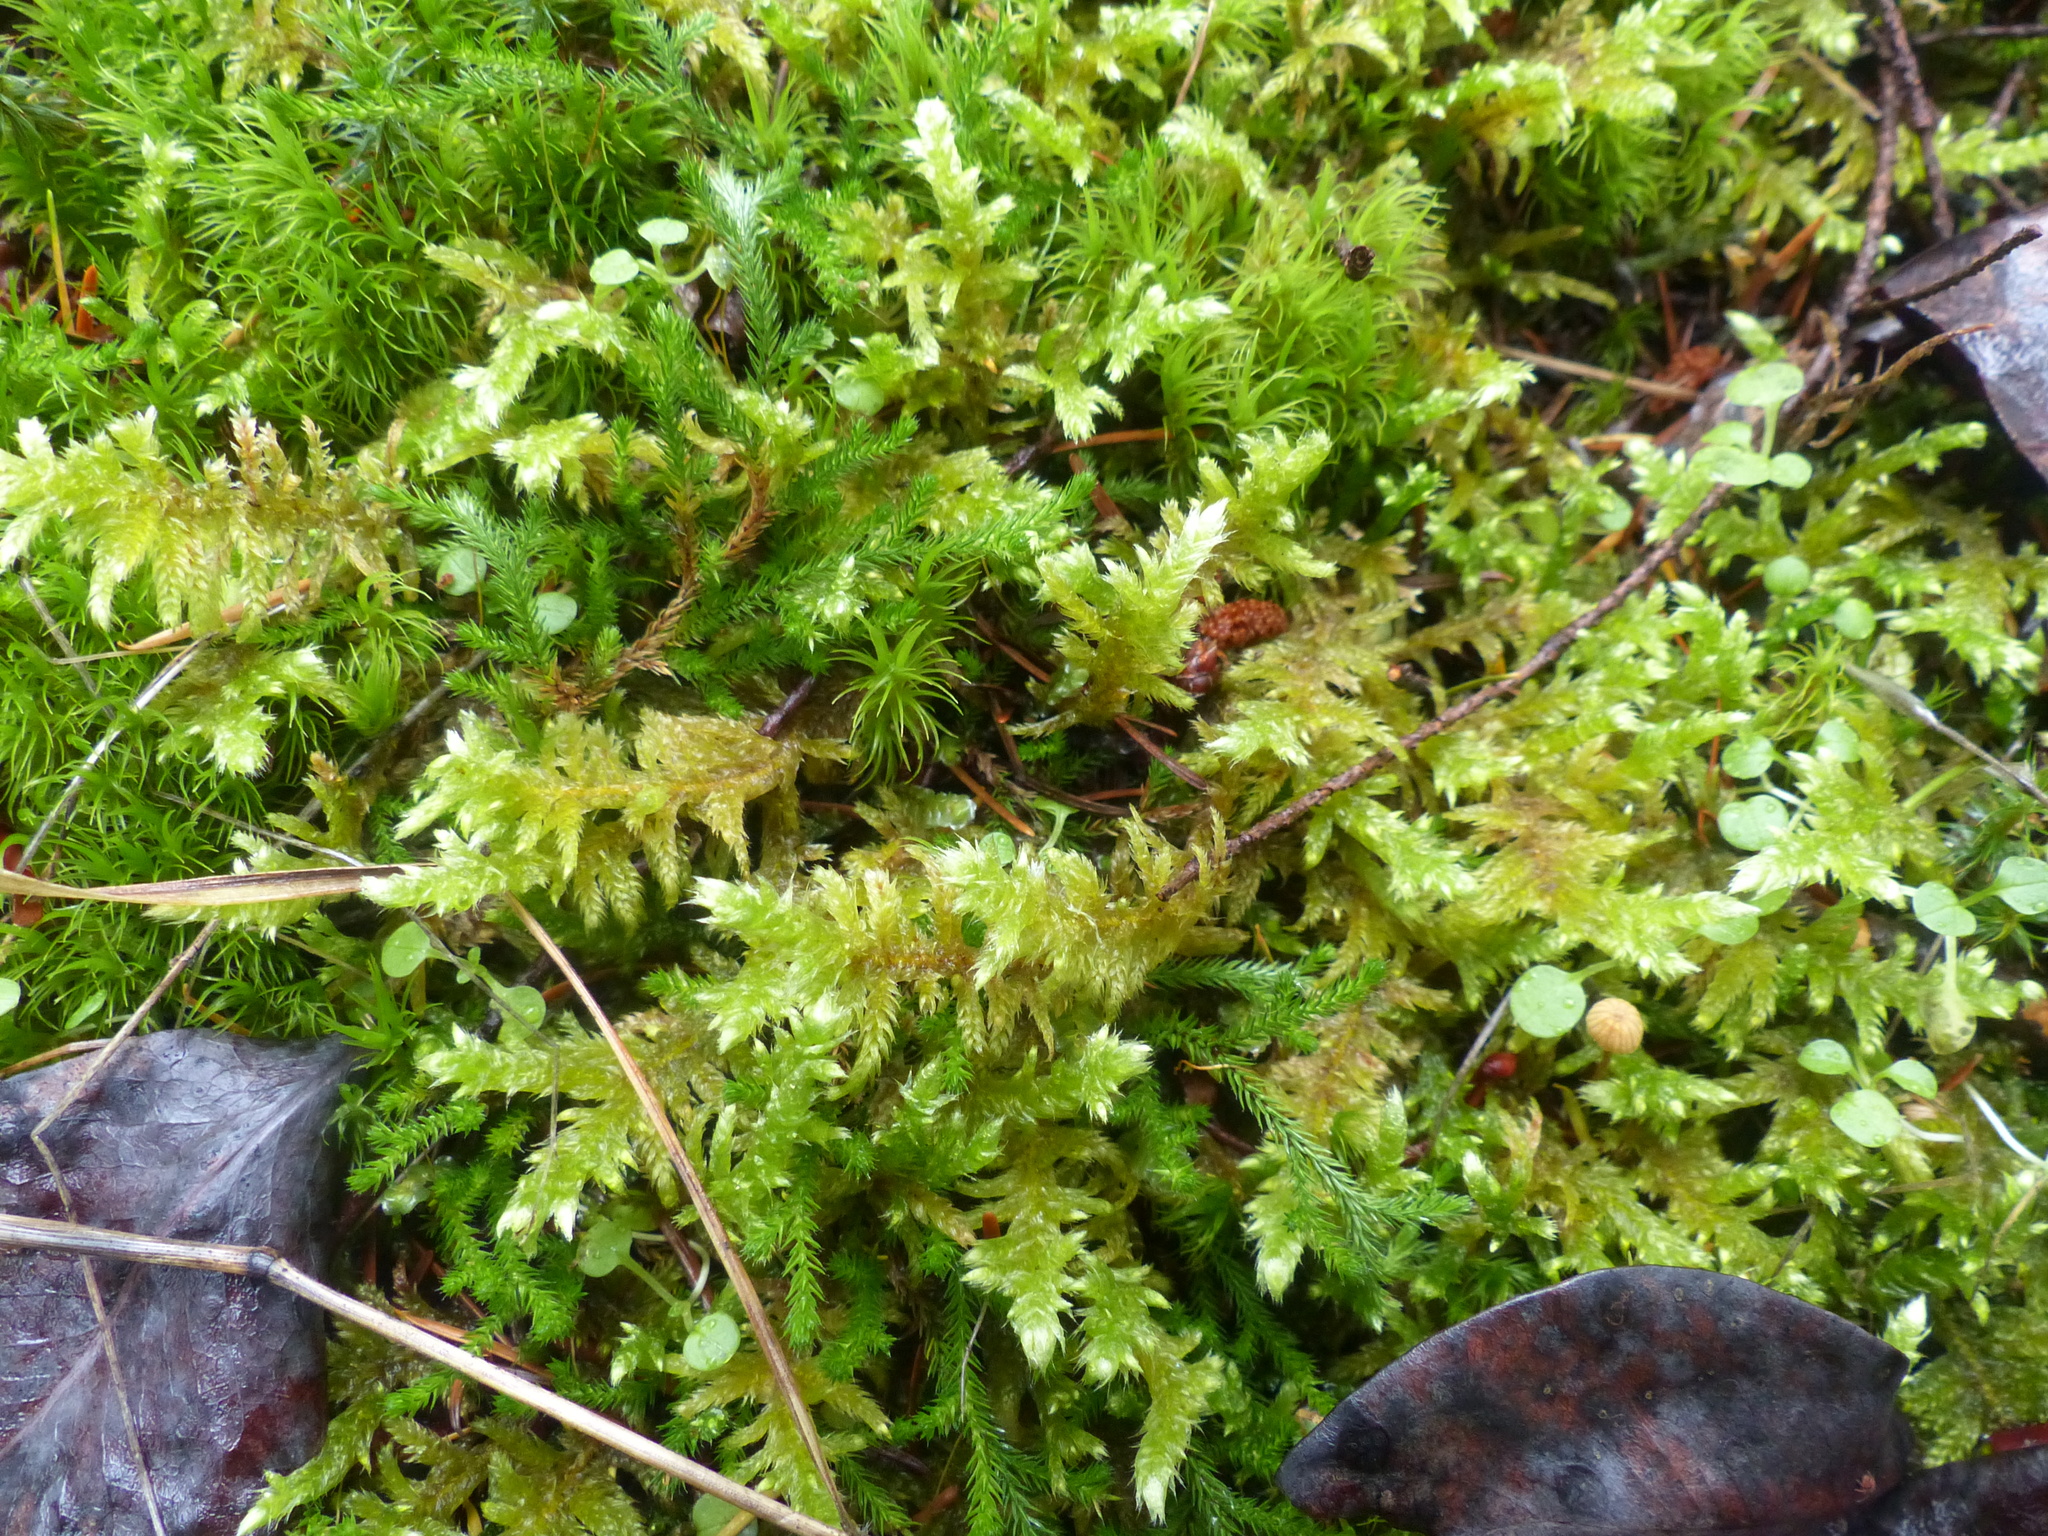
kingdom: Plantae
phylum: Bryophyta
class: Bryopsida
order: Hypnales
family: Brachytheciaceae
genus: Homalothecium
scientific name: Homalothecium megaptilum
